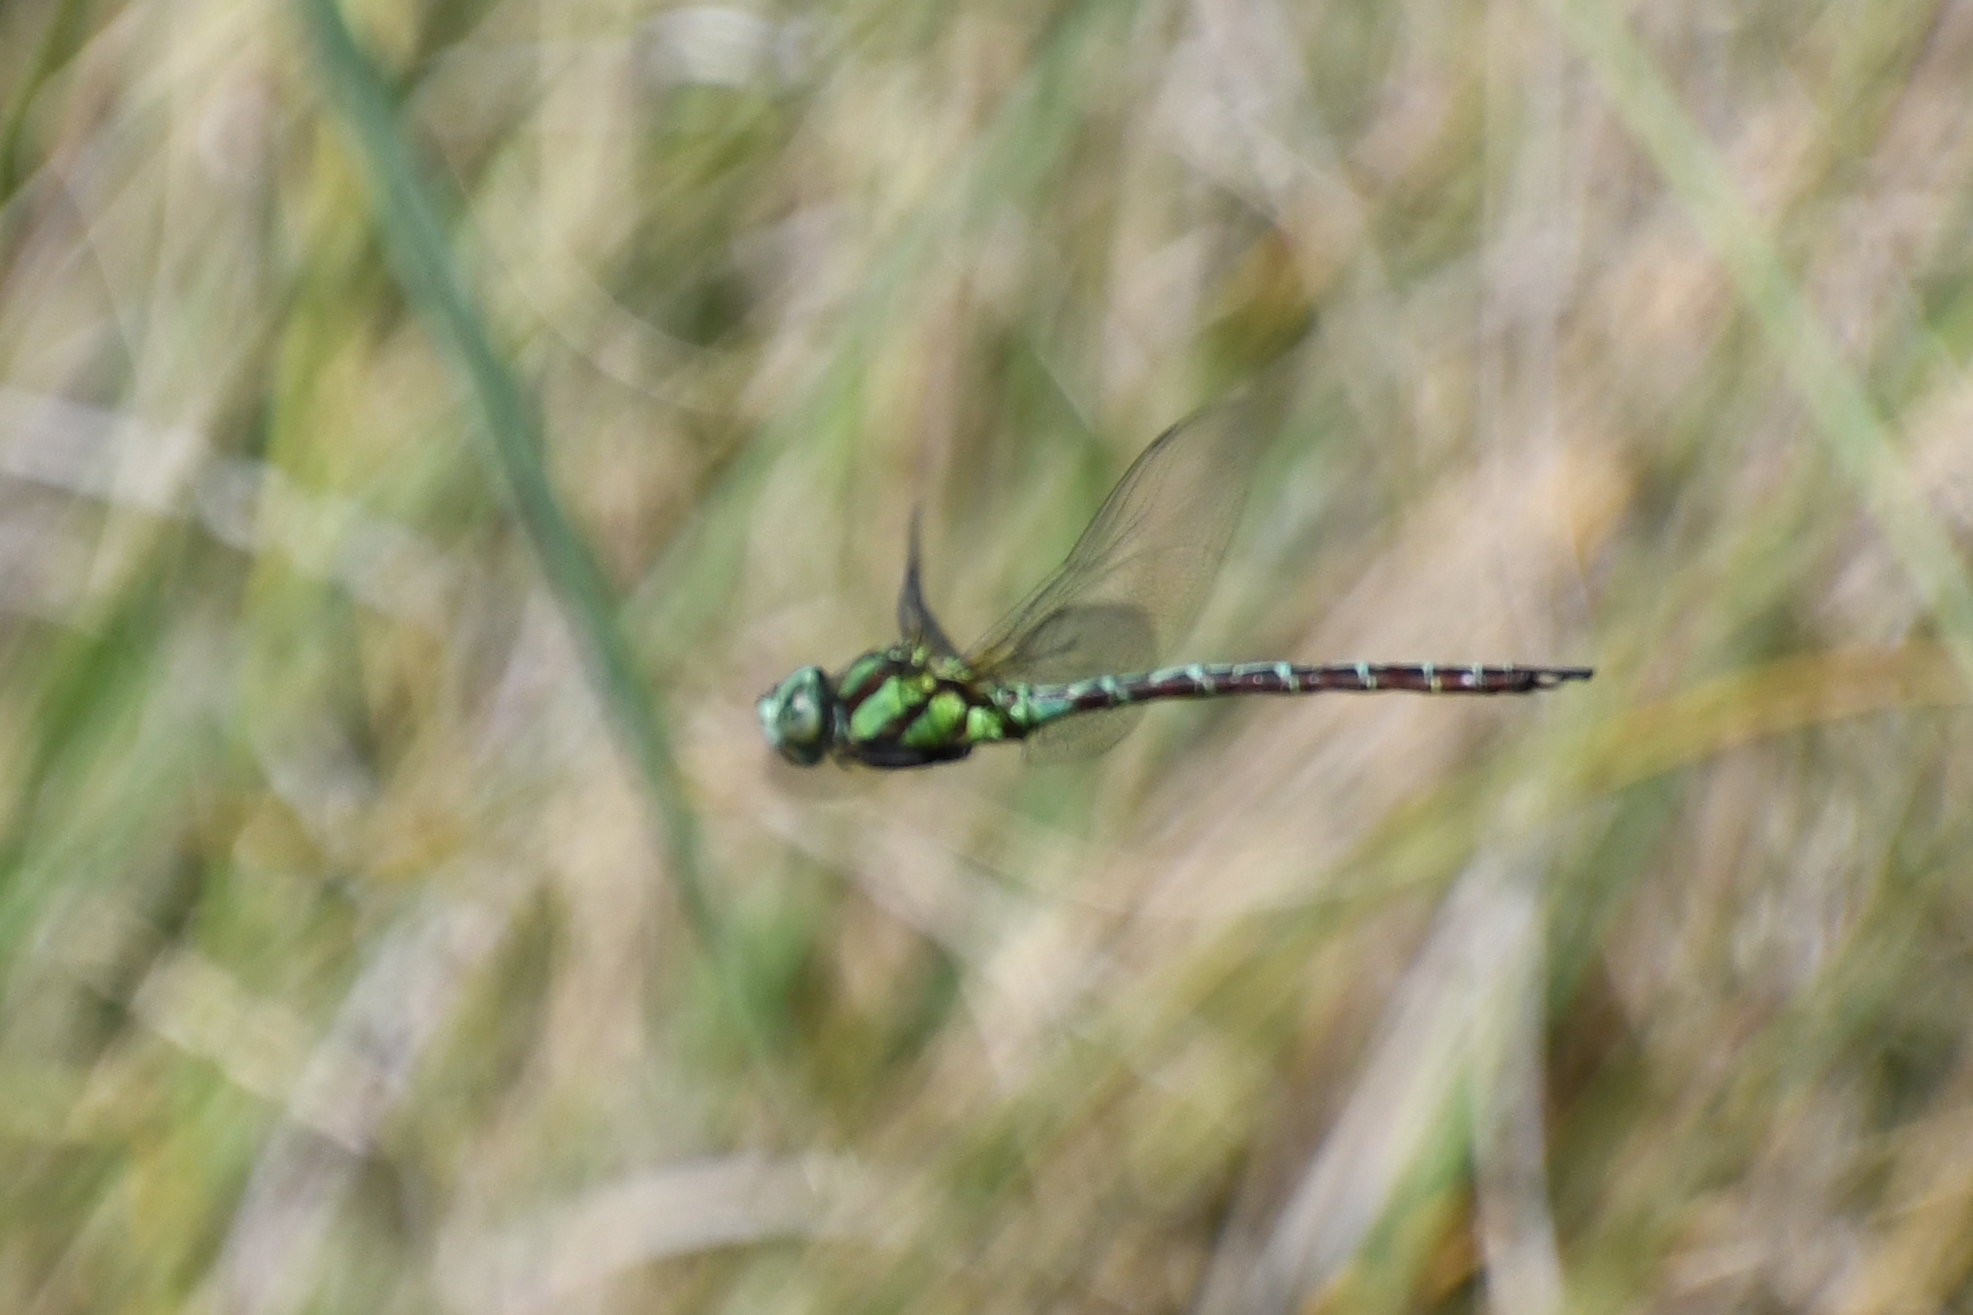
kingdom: Animalia
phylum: Arthropoda
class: Insecta
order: Odonata
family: Aeshnidae
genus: Remartinia
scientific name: Remartinia luteipennis
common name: Malachite darner
